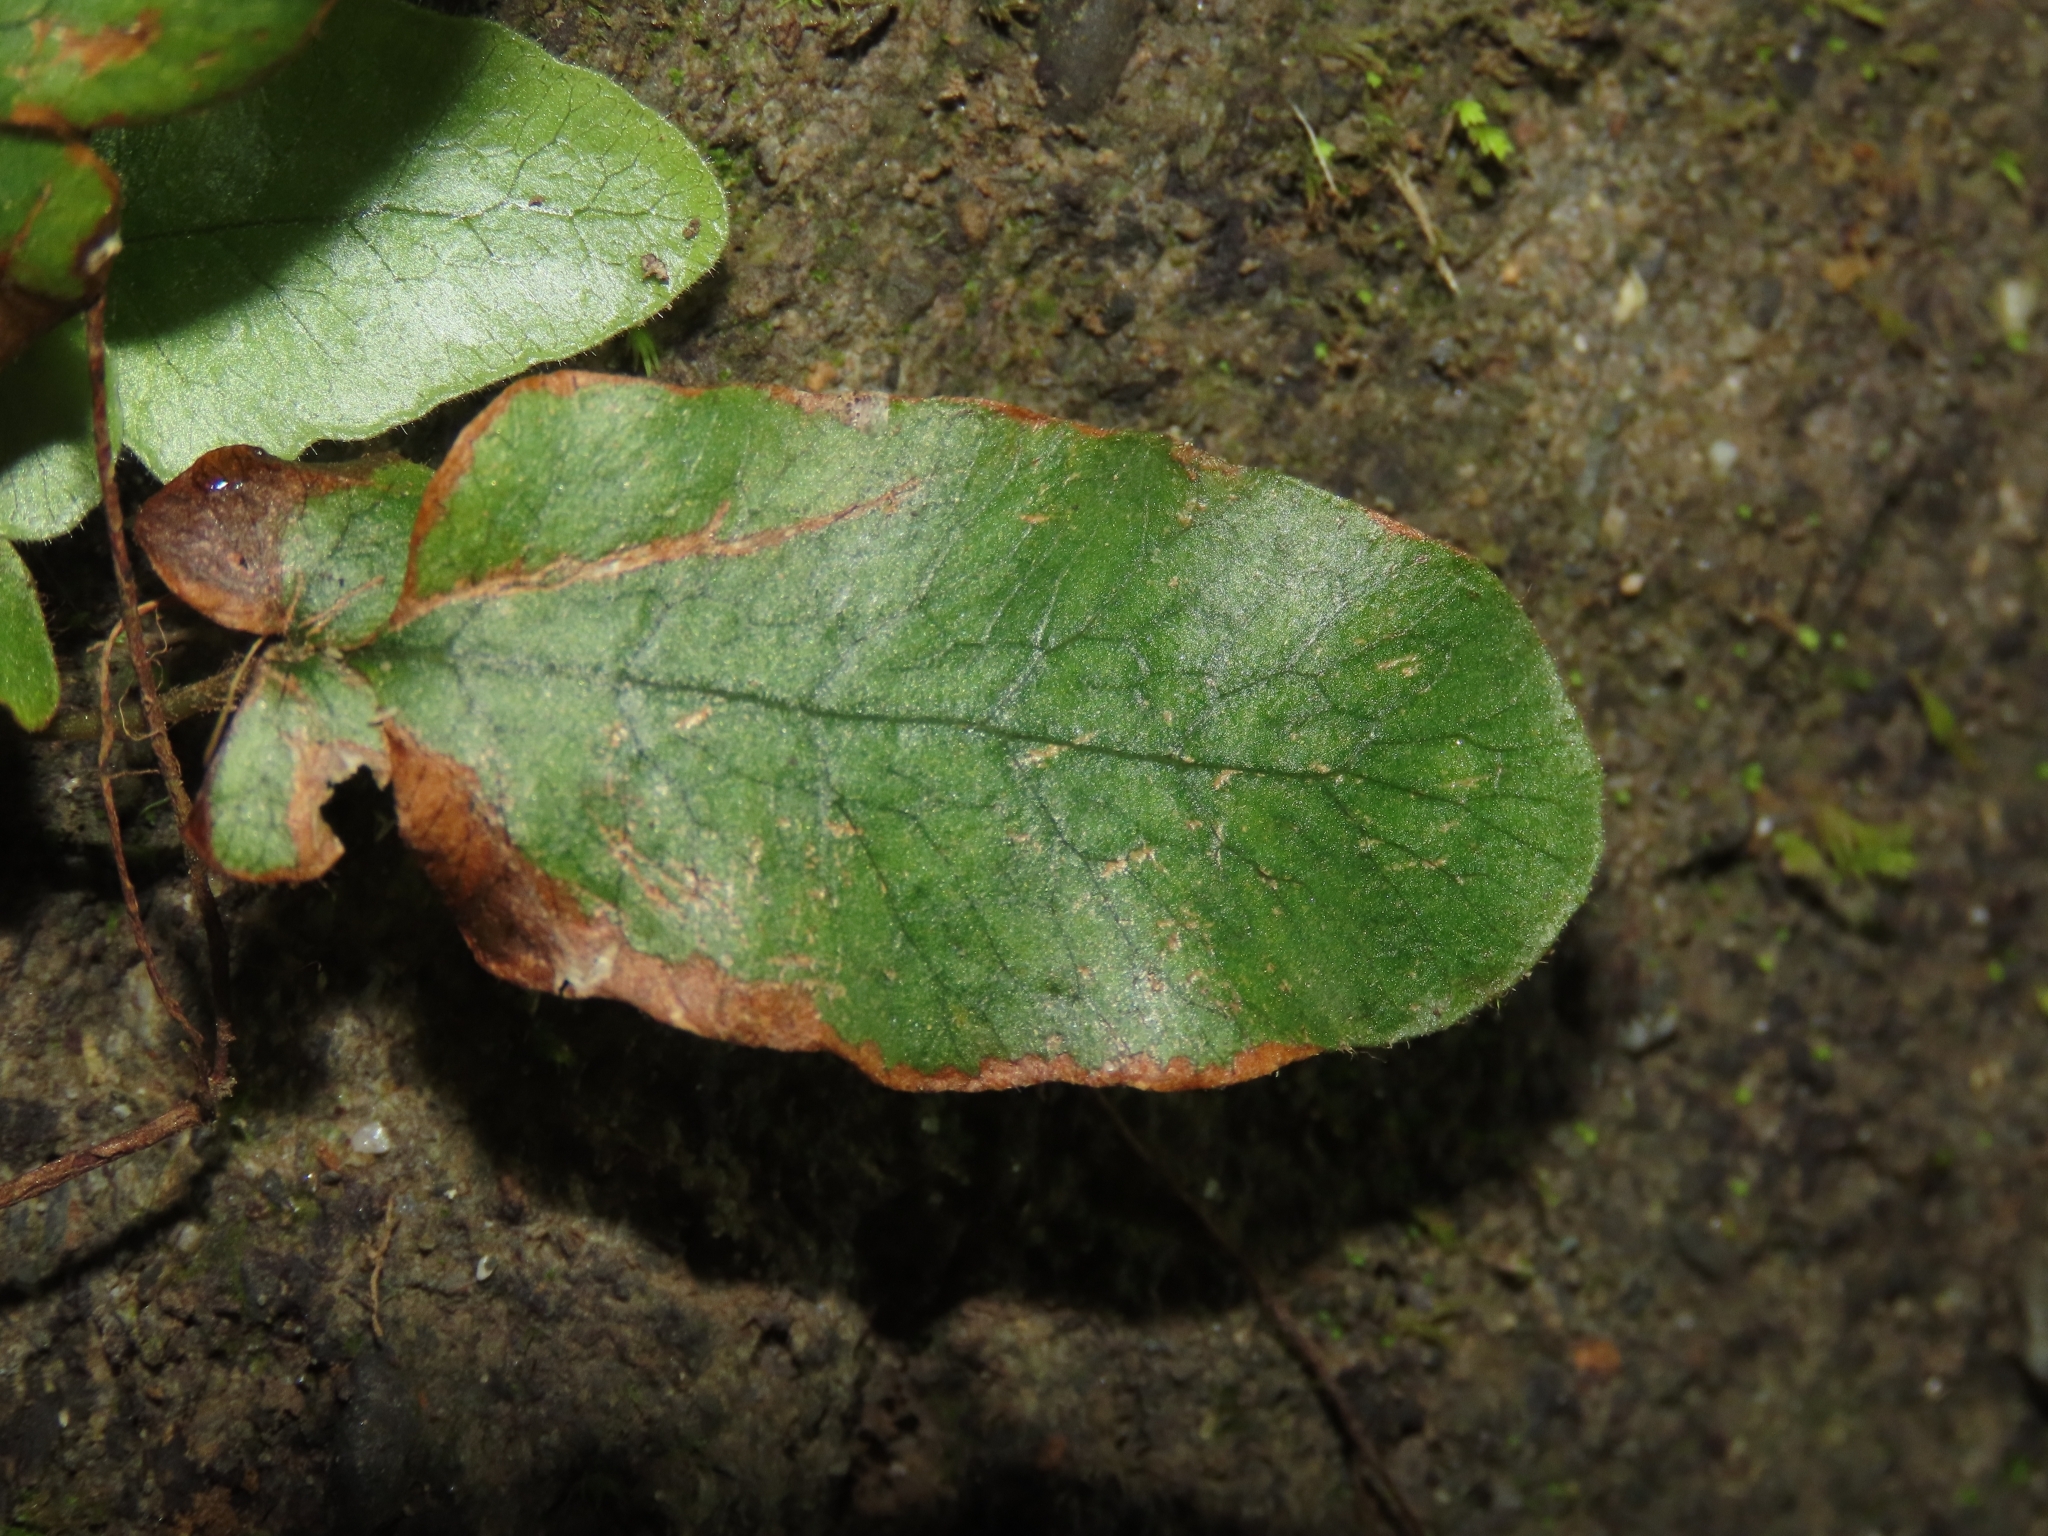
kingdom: Plantae
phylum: Tracheophyta
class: Polypodiopsida
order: Polypodiales
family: Tectariaceae
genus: Tectaria
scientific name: Tectaria zeilanica
